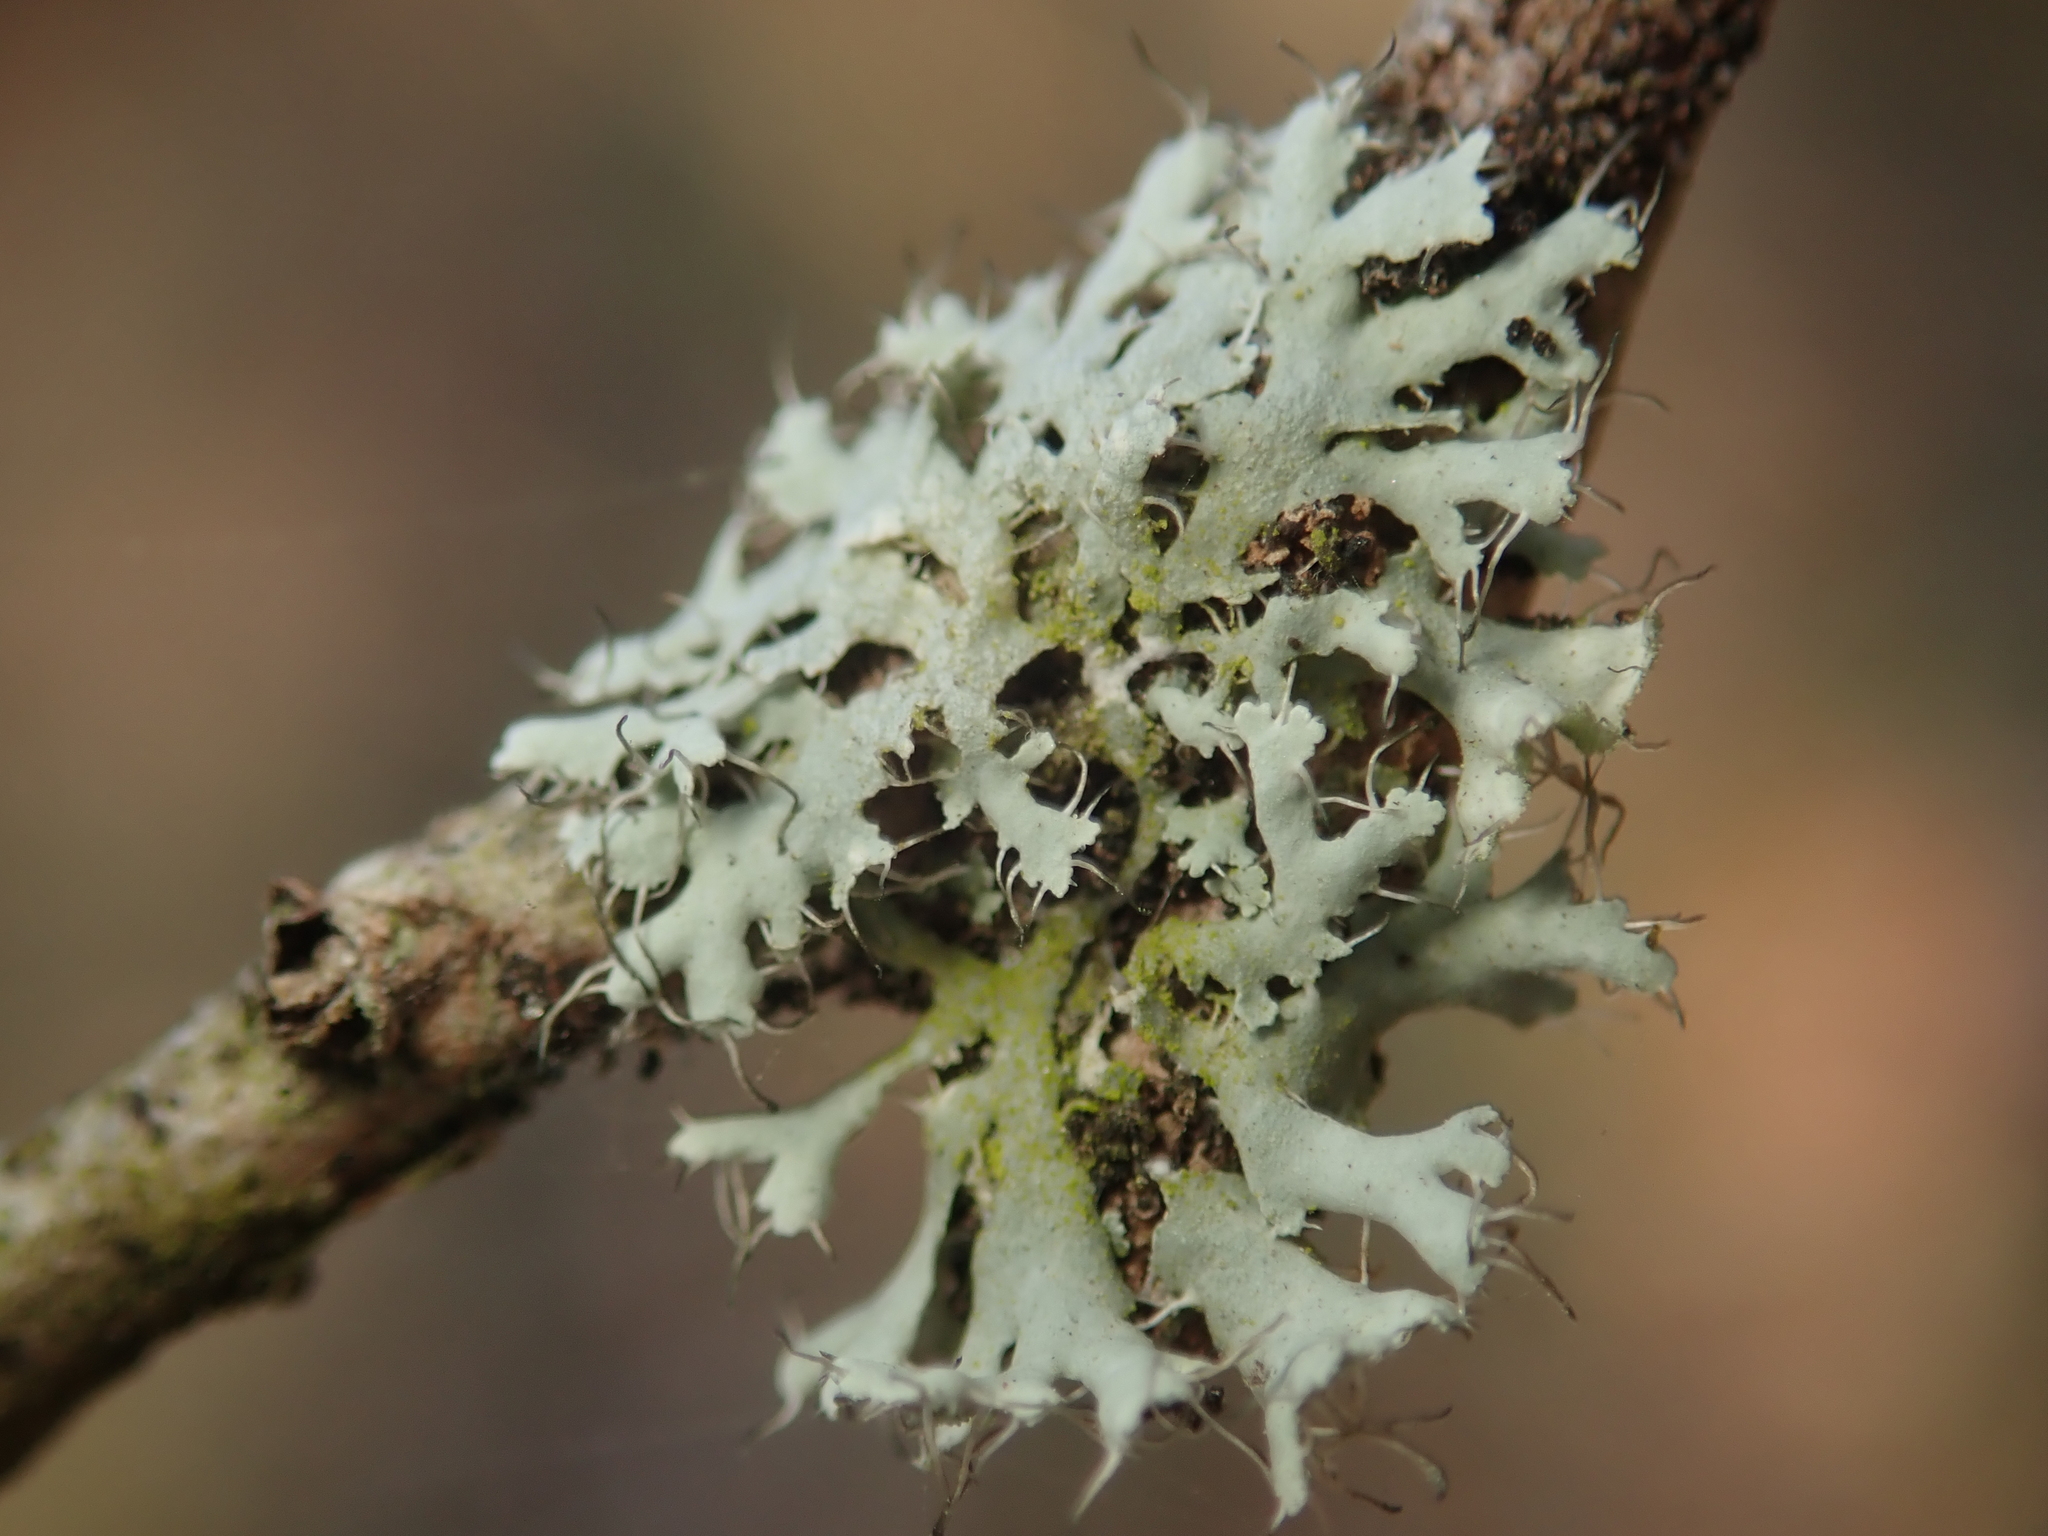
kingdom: Fungi
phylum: Ascomycota
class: Lecanoromycetes
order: Caliciales
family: Physciaceae
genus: Physcia
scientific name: Physcia adscendens
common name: Hooded rosette lichen
